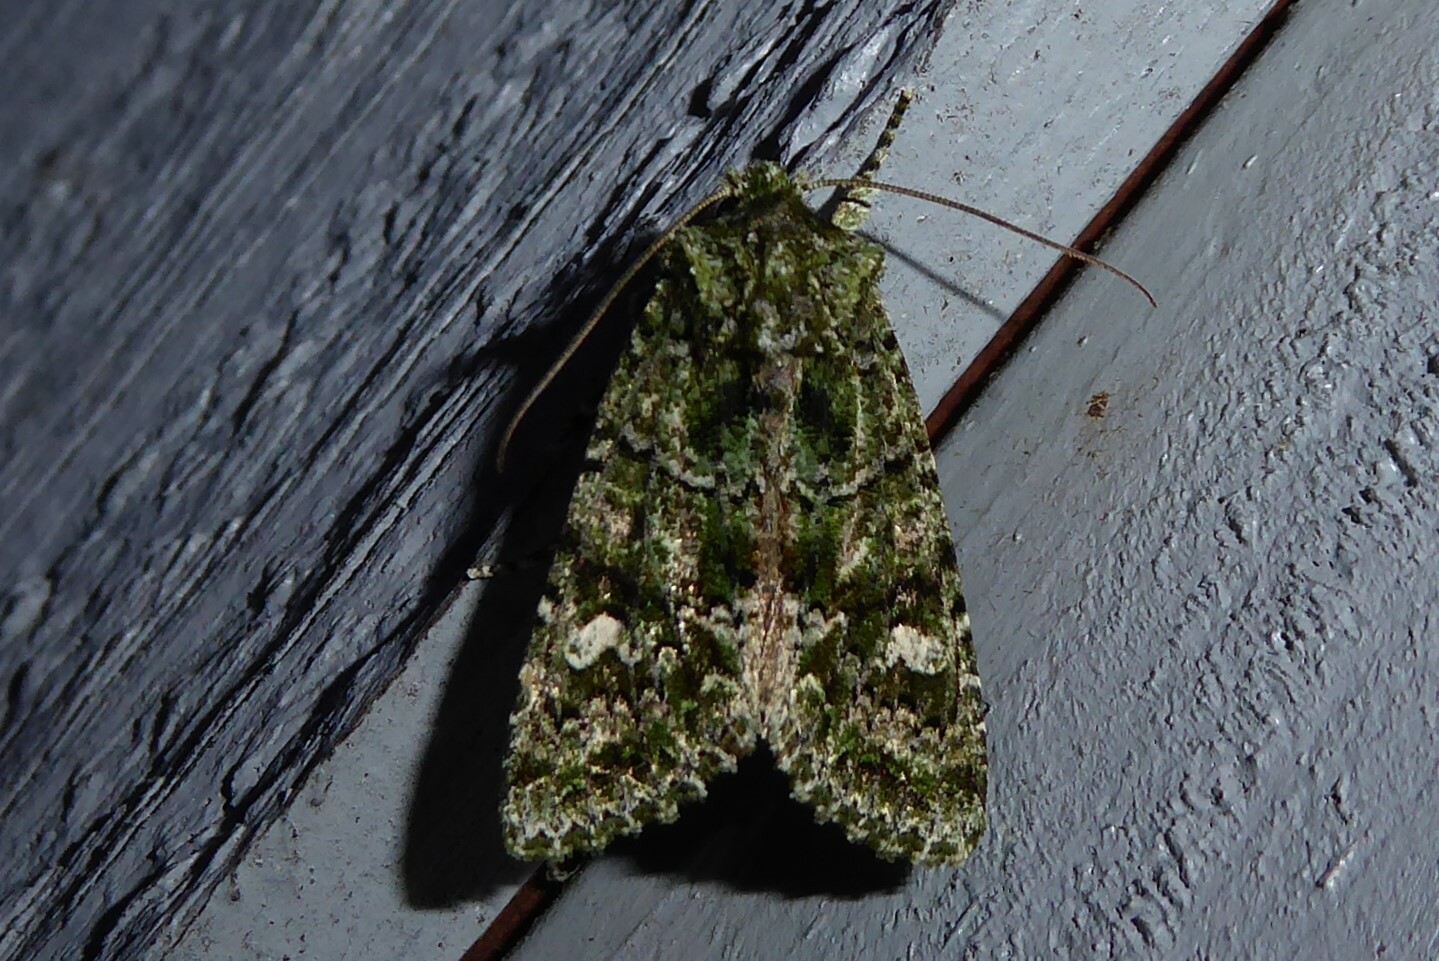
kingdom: Animalia
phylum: Arthropoda
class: Insecta
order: Lepidoptera
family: Noctuidae
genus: Ichneutica
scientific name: Ichneutica
